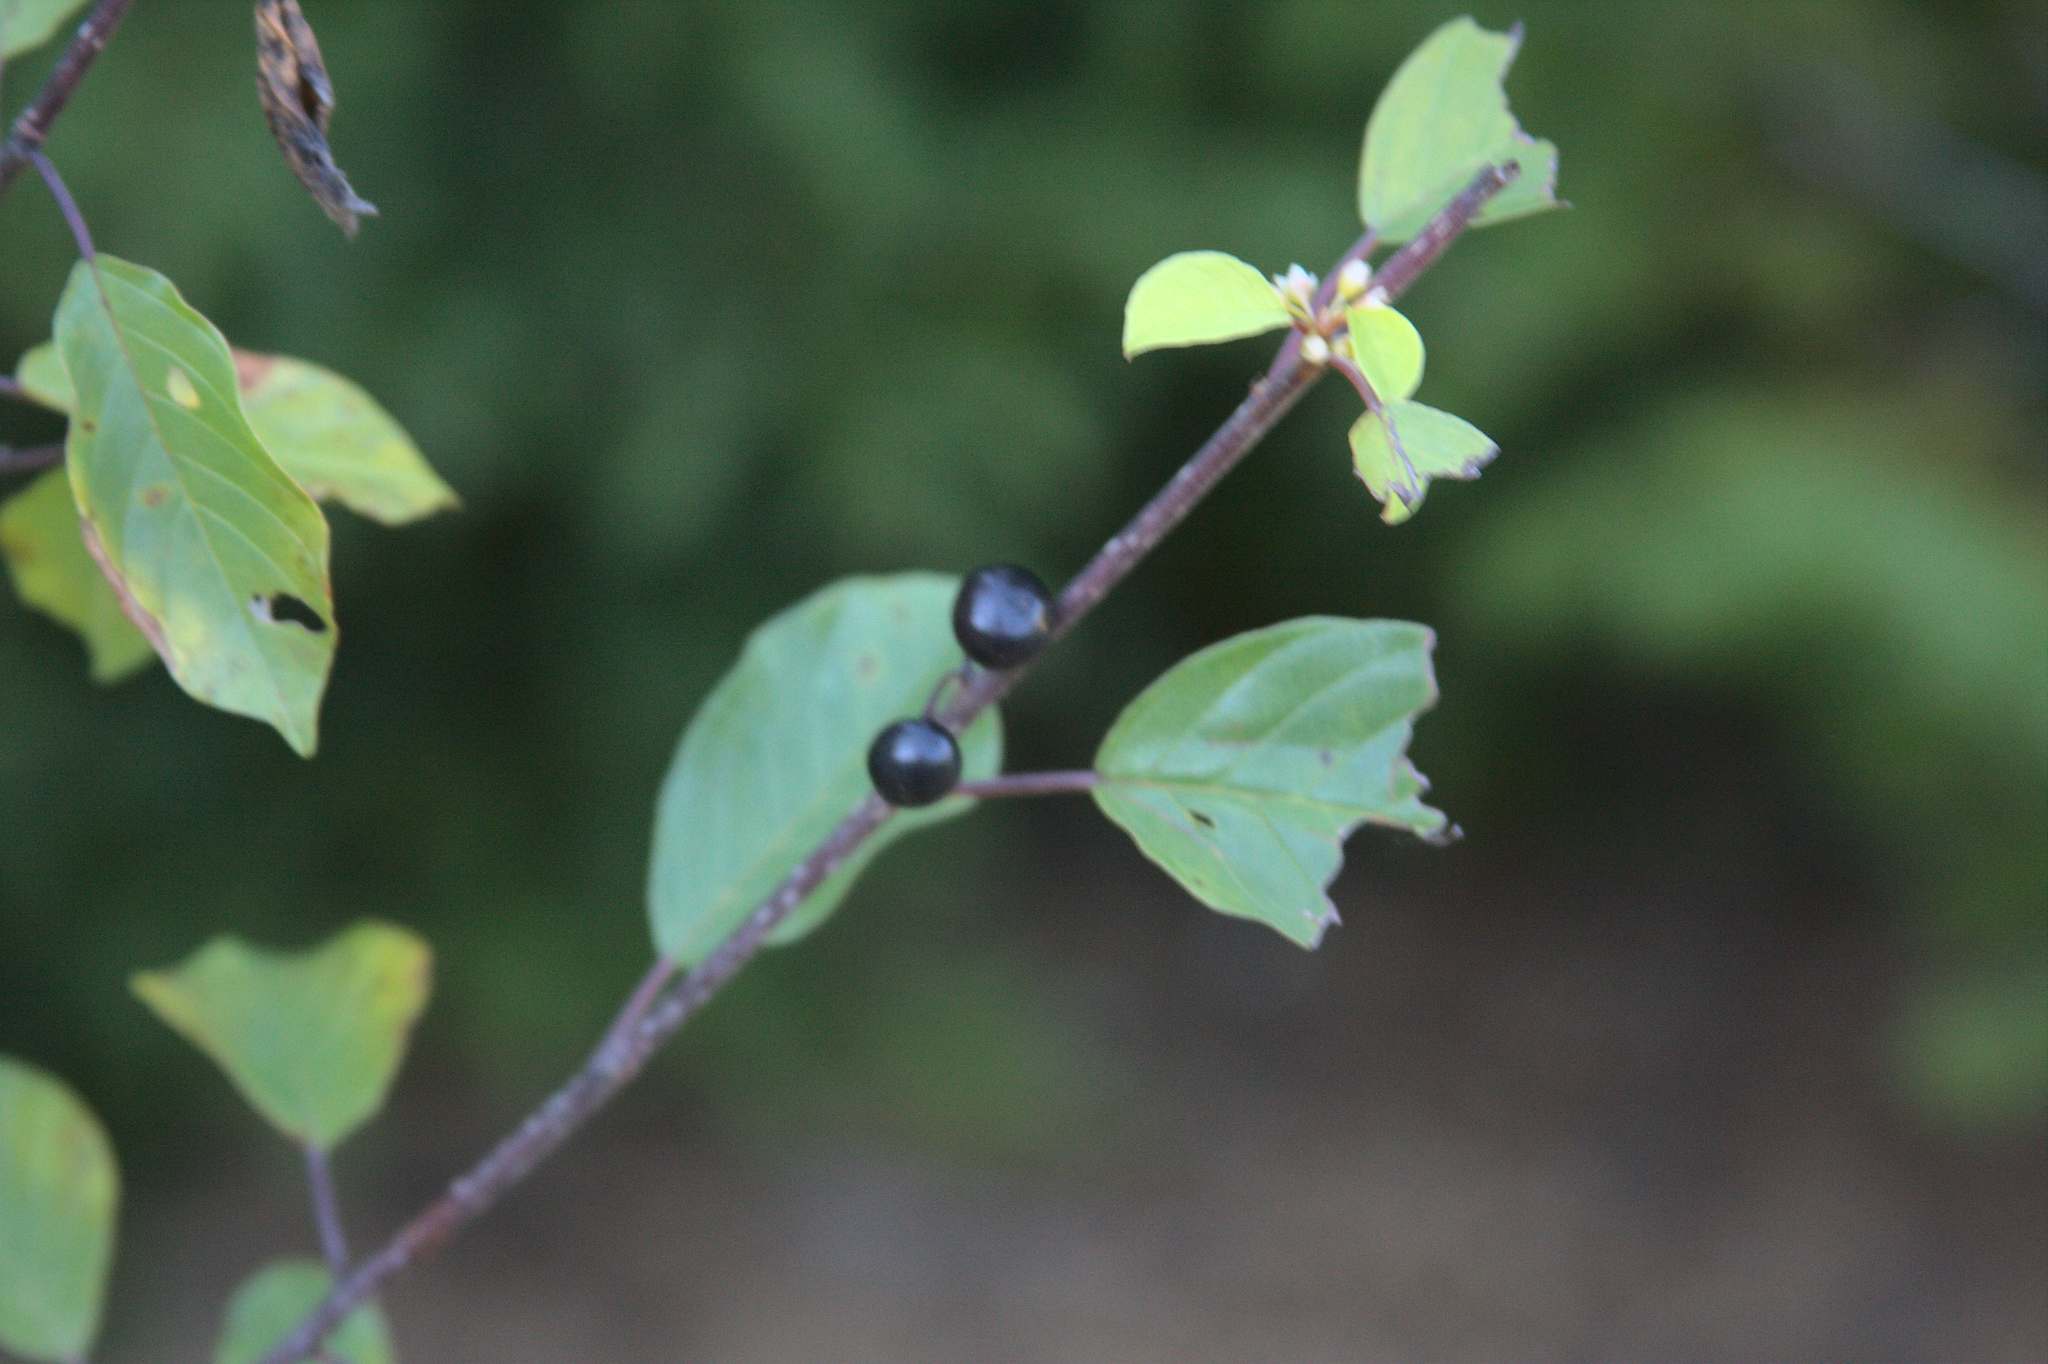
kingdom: Plantae
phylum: Tracheophyta
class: Magnoliopsida
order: Rosales
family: Rhamnaceae
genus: Frangula
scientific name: Frangula alnus
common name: Alder buckthorn
